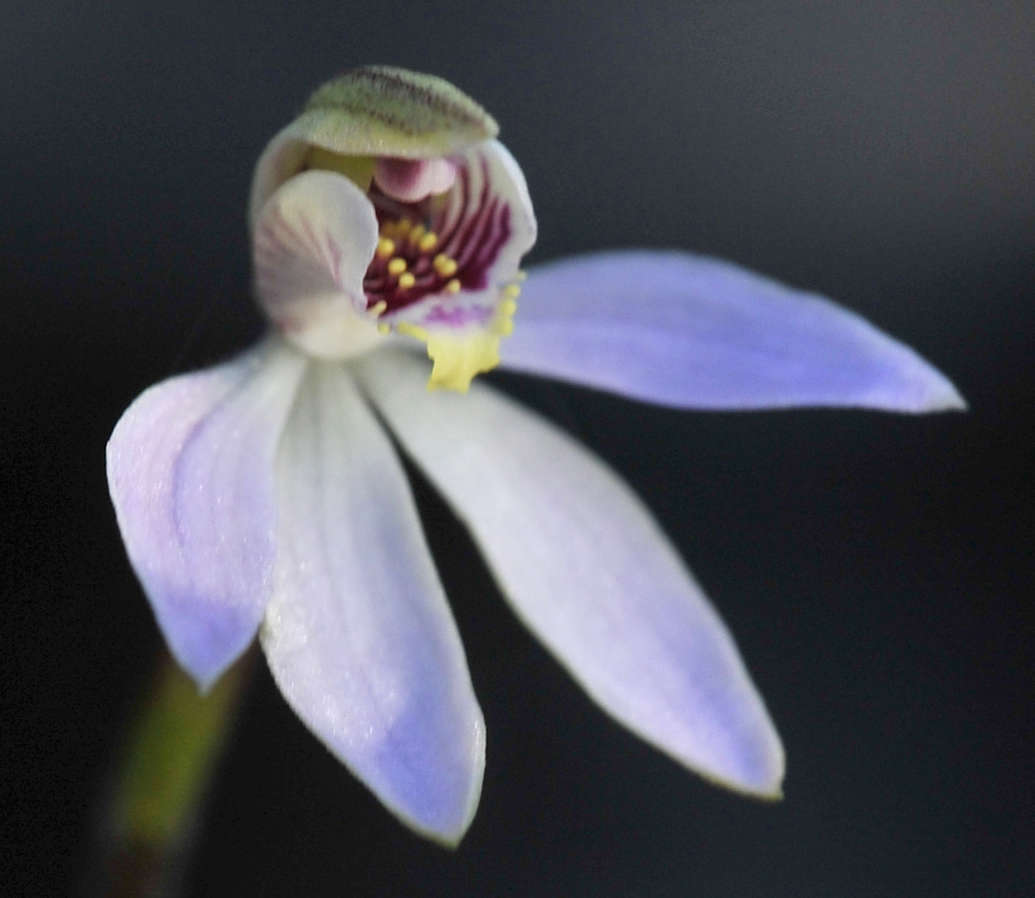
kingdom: Plantae
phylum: Tracheophyta
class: Liliopsida
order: Asparagales
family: Orchidaceae
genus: Caladenia
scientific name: Caladenia carnea
